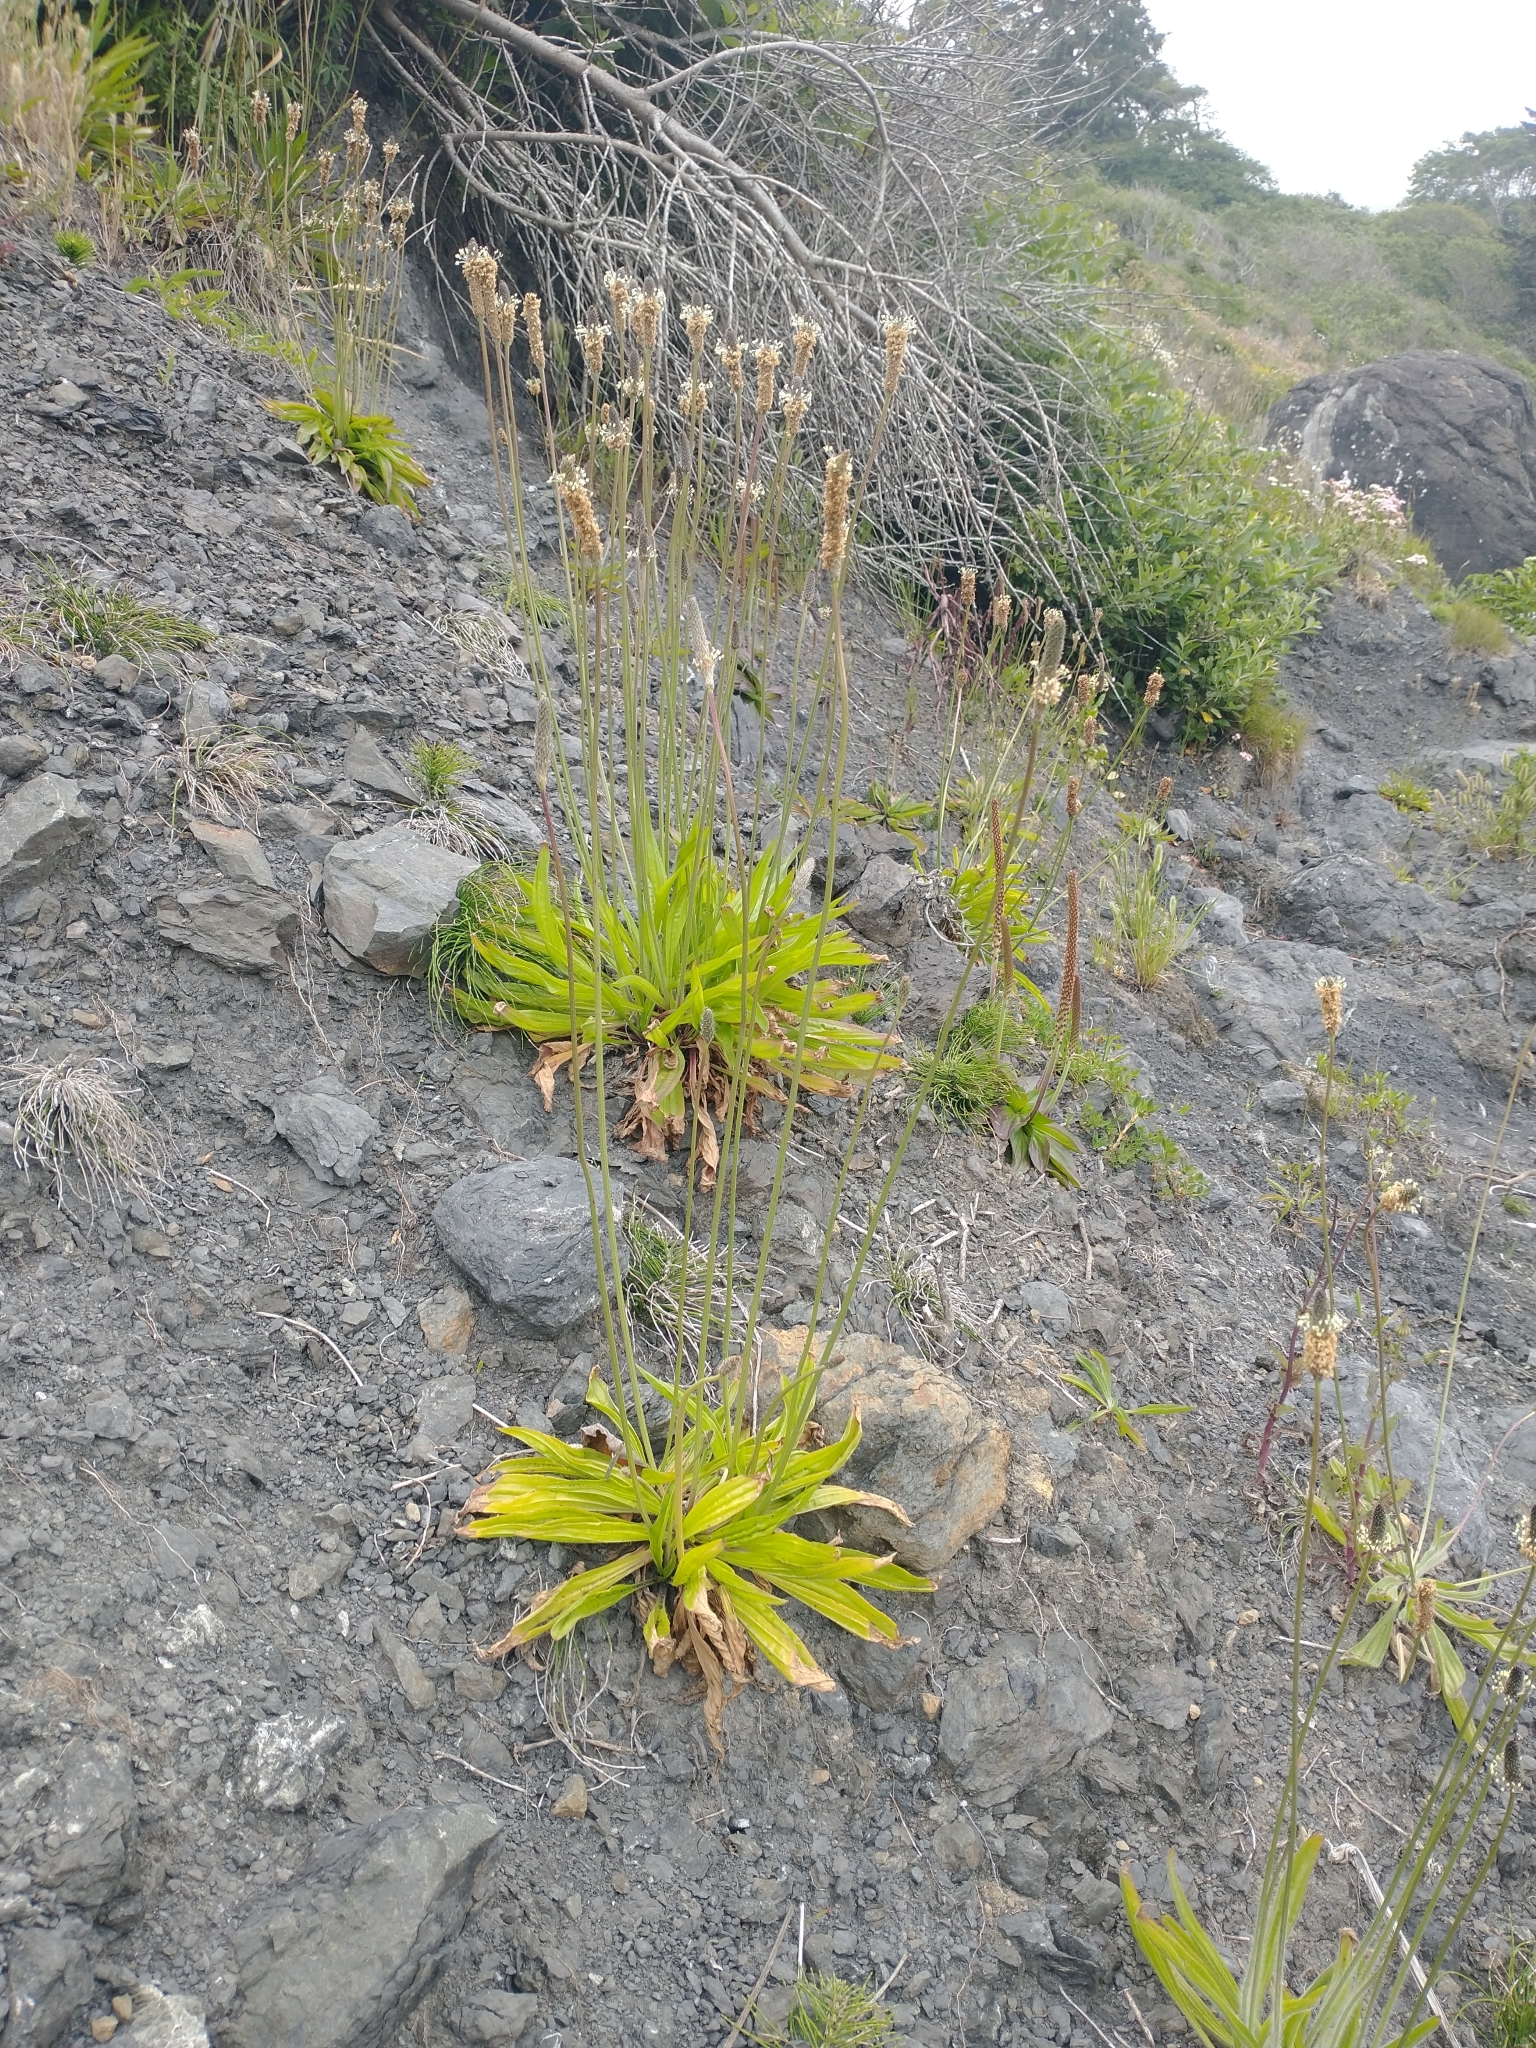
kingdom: Plantae
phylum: Tracheophyta
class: Magnoliopsida
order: Lamiales
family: Plantaginaceae
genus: Plantago
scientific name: Plantago lanceolata
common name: Ribwort plantain
